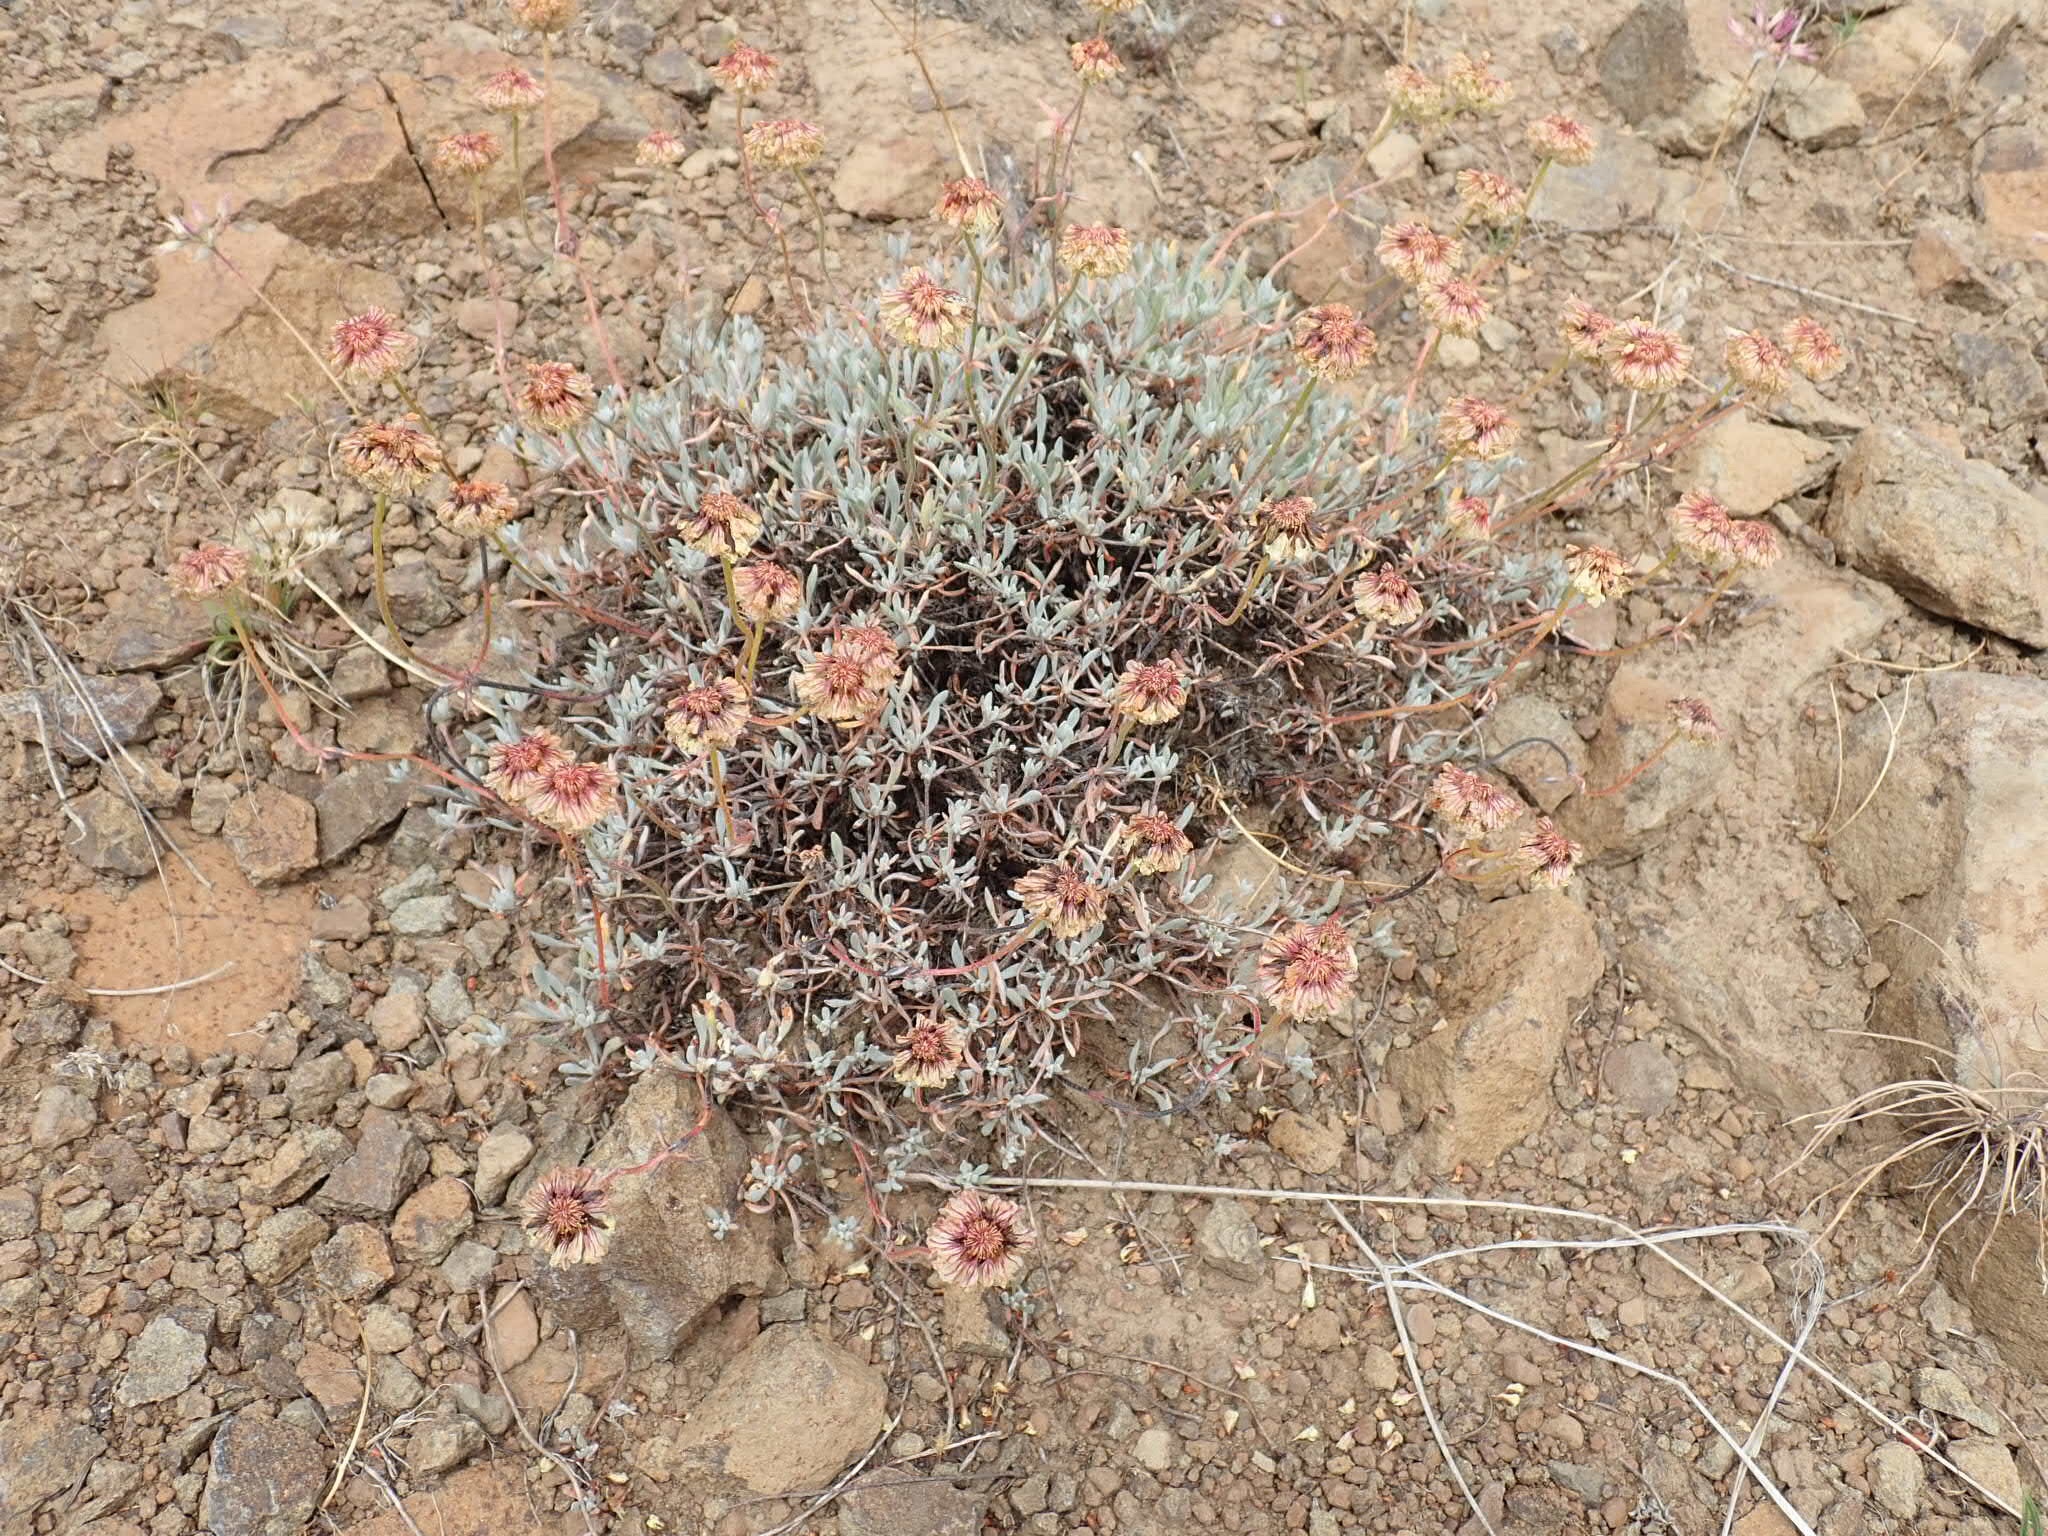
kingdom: Plantae
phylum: Tracheophyta
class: Magnoliopsida
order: Caryophyllales
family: Polygonaceae
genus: Eriogonum
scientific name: Eriogonum douglasii
